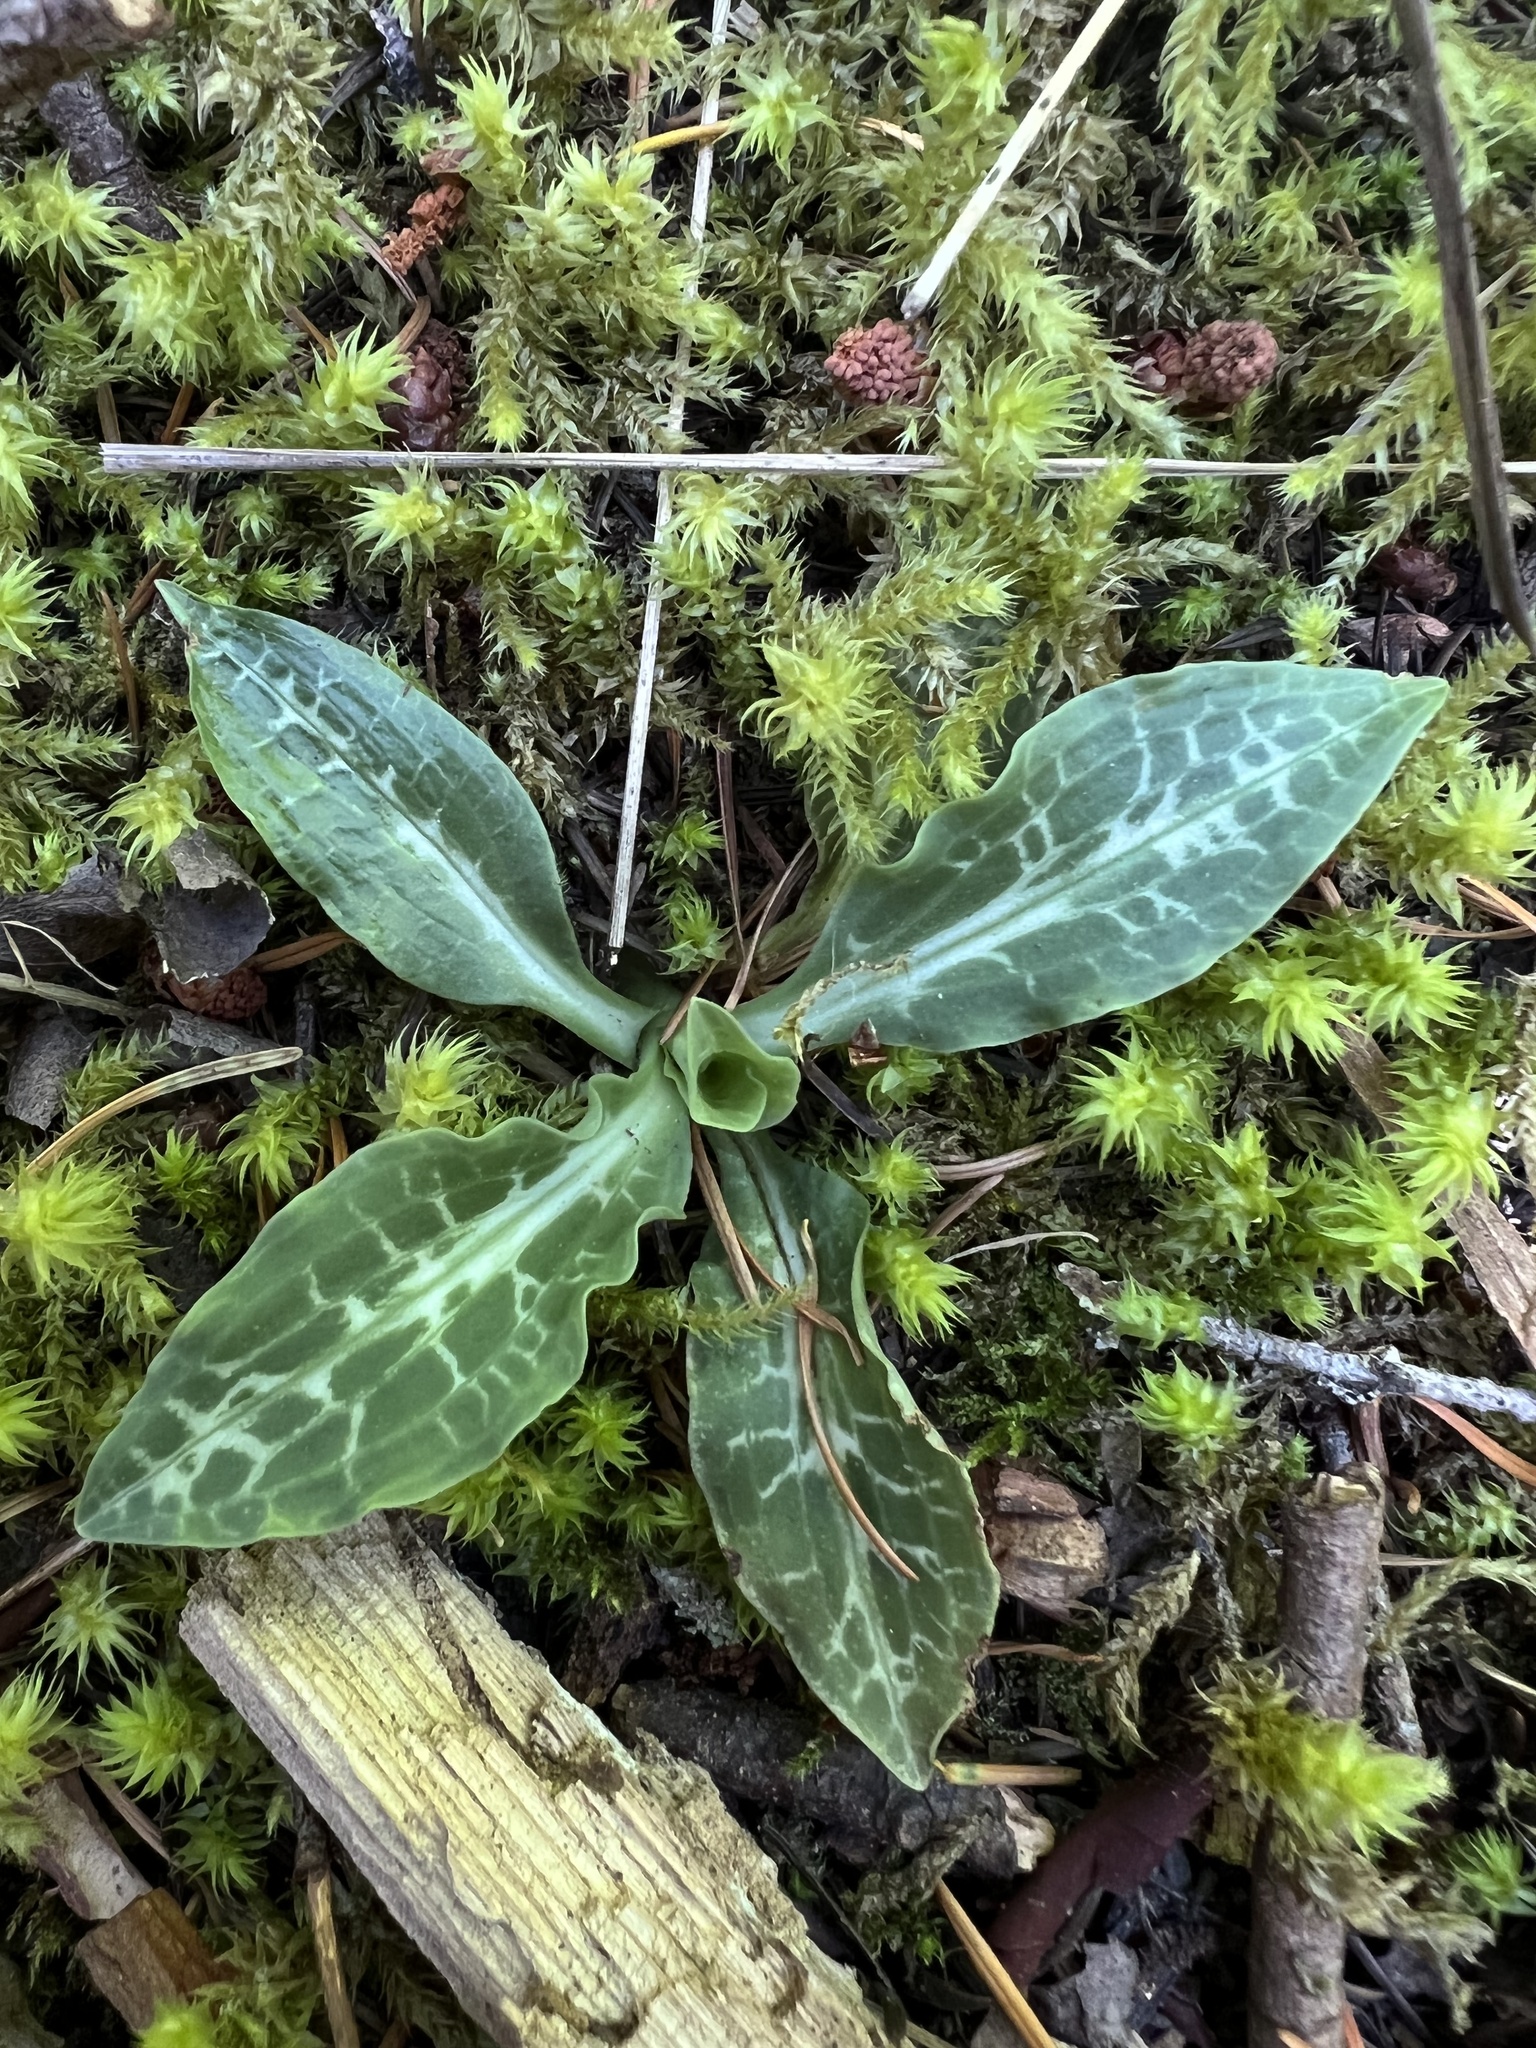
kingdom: Plantae
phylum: Tracheophyta
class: Liliopsida
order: Asparagales
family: Orchidaceae
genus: Goodyera
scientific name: Goodyera oblongifolia
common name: Giant rattlesnake-plantain
